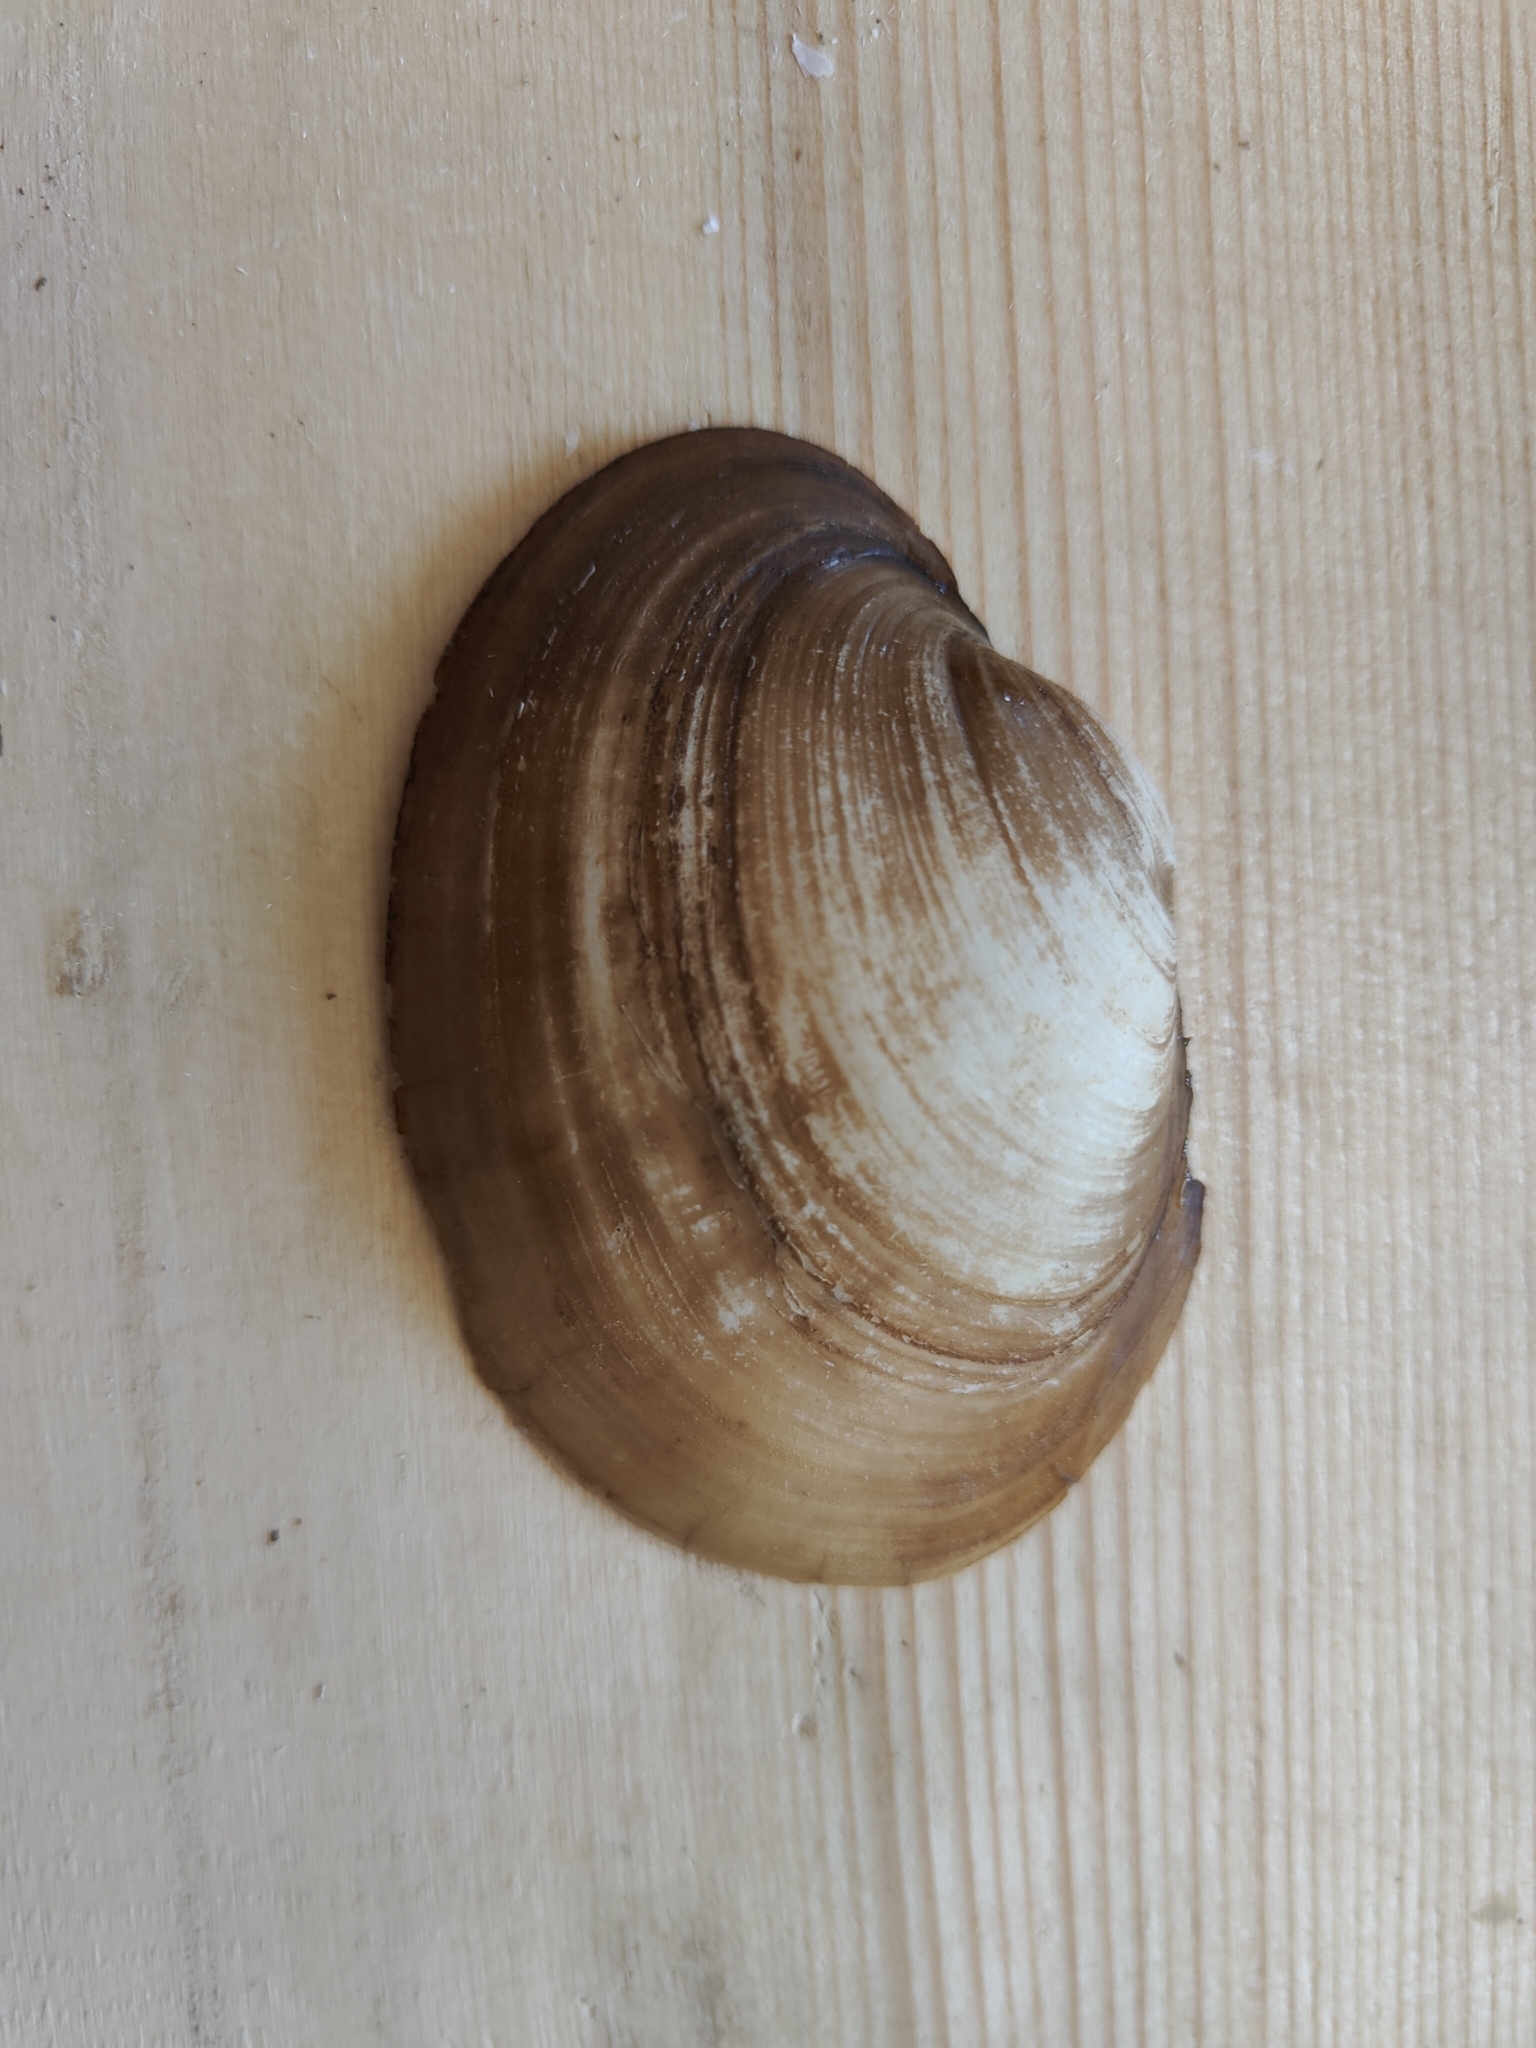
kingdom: Animalia
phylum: Mollusca
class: Bivalvia
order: Unionida
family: Unionidae
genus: Lampsilis
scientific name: Lampsilis cardium
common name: Plain pocketbook
